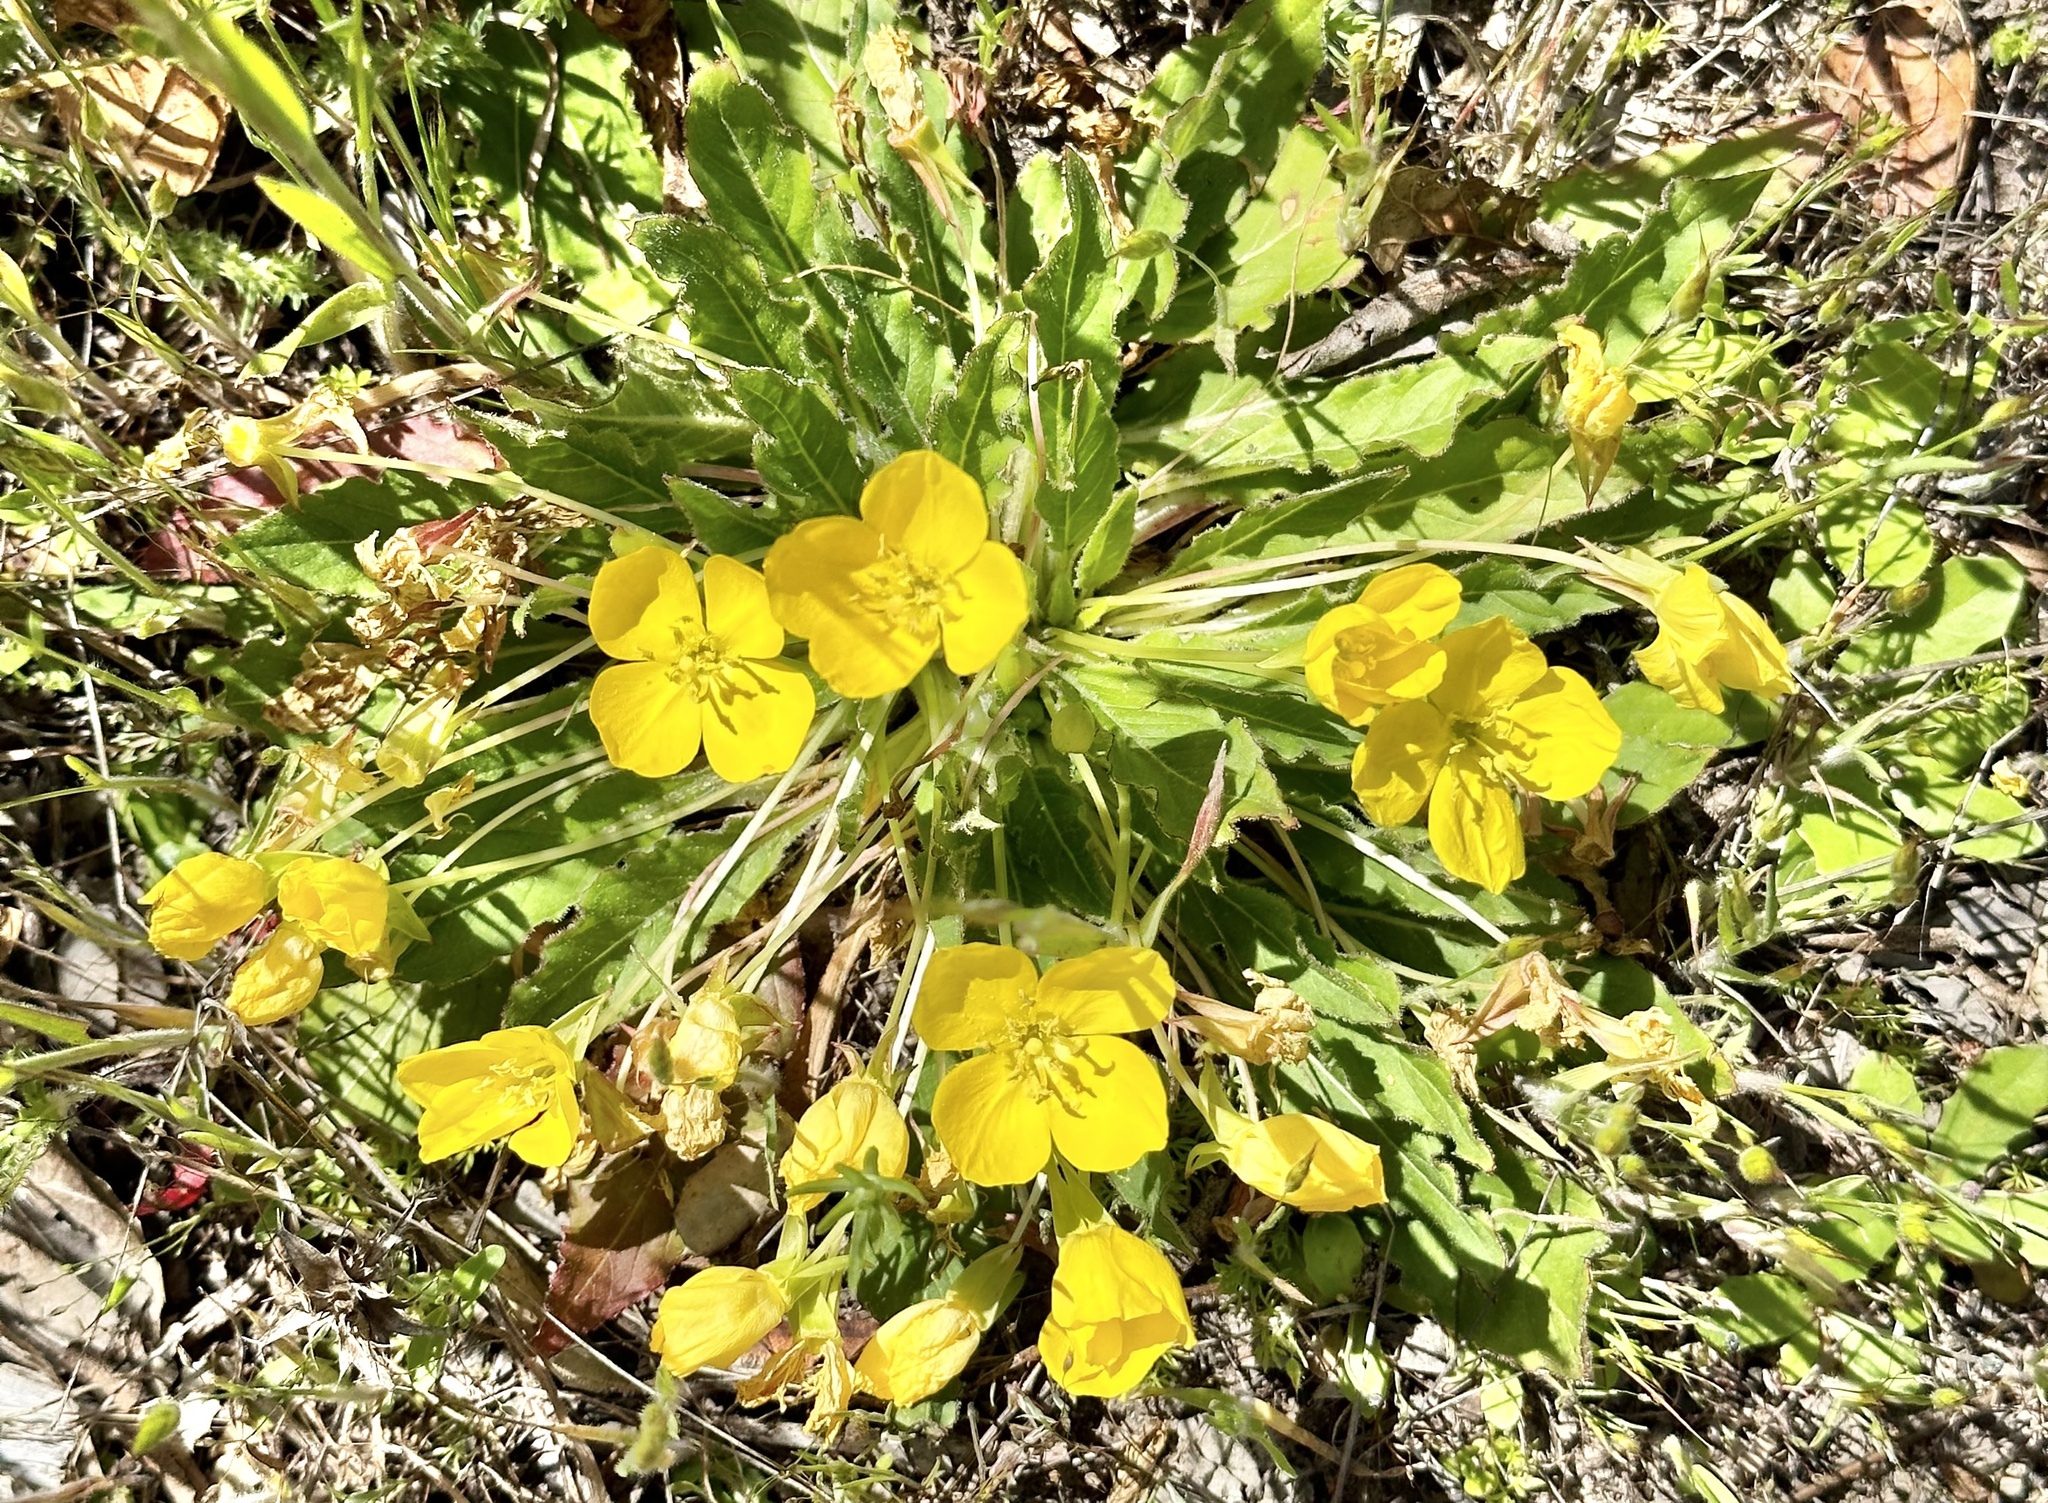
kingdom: Plantae
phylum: Tracheophyta
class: Magnoliopsida
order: Myrtales
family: Onagraceae
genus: Taraxia
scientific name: Taraxia ovata
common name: Goldeneggs
